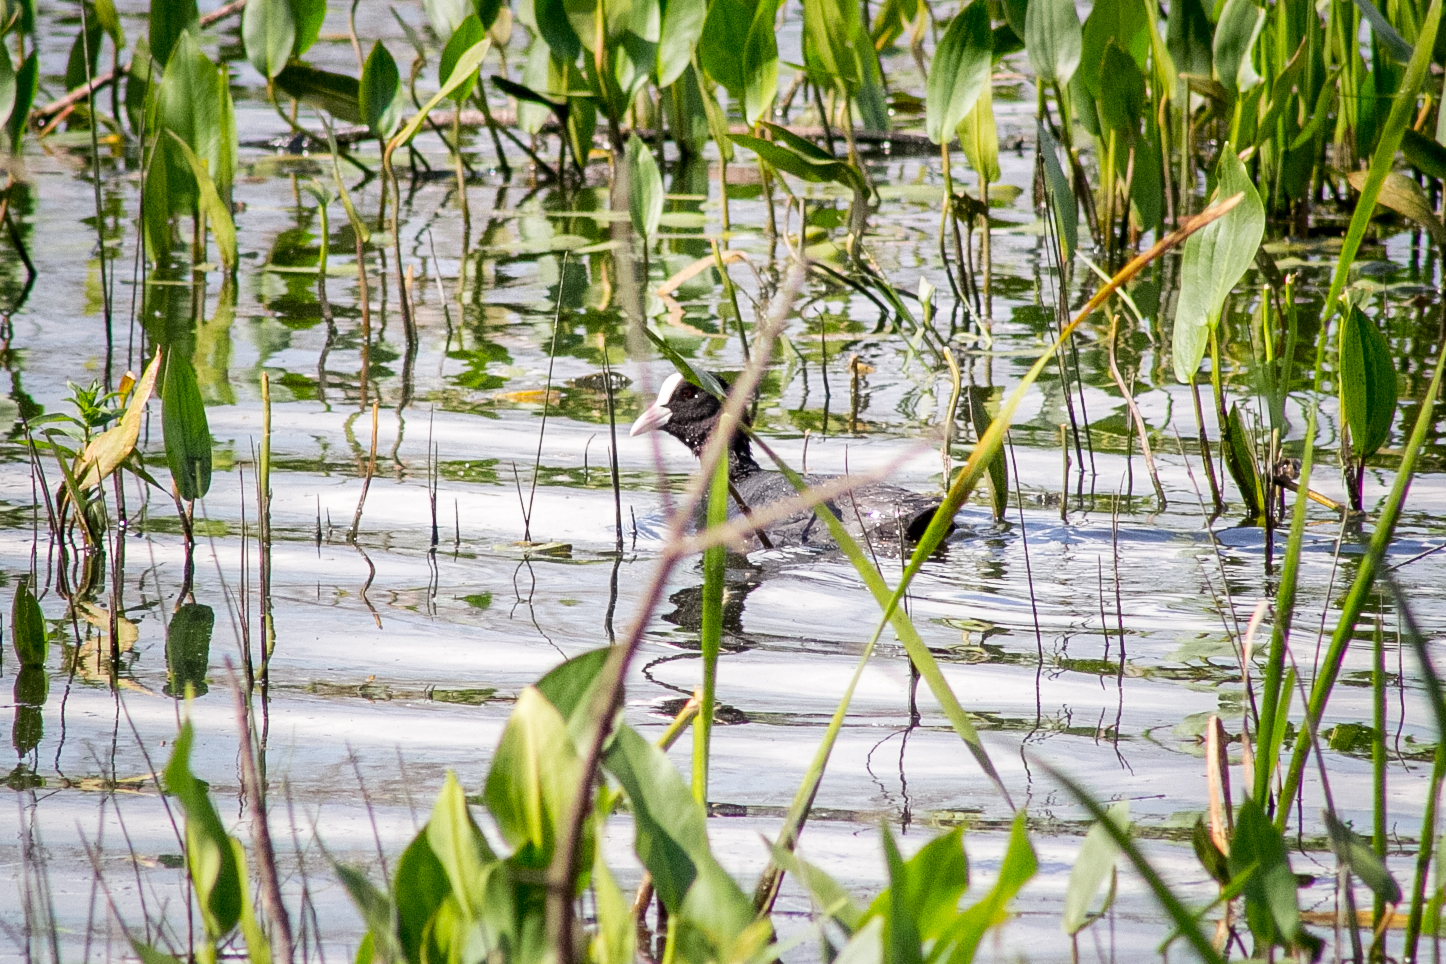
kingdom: Animalia
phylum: Chordata
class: Aves
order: Gruiformes
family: Rallidae
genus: Fulica
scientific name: Fulica atra
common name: Eurasian coot
